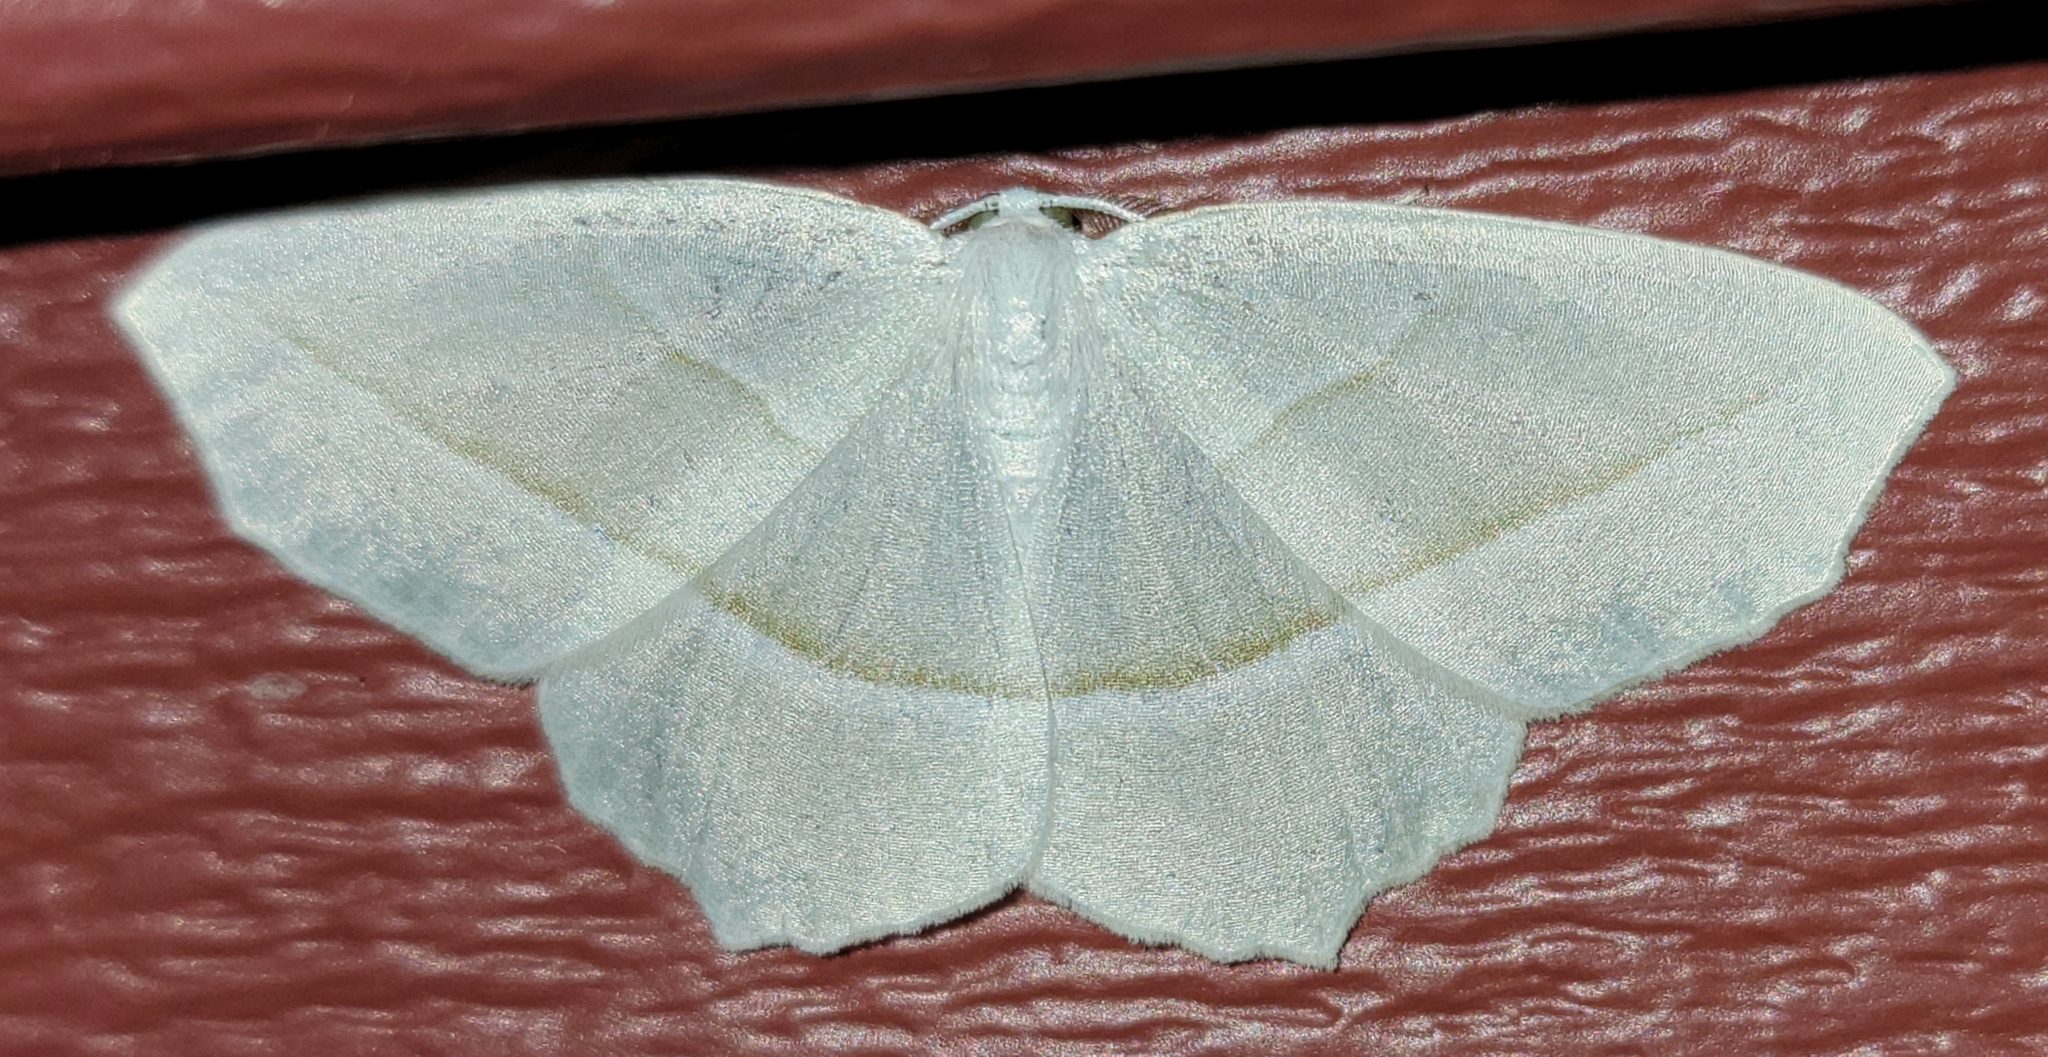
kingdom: Animalia
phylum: Arthropoda
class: Insecta
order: Lepidoptera
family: Geometridae
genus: Campaea
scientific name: Campaea perlata
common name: Fringed looper
